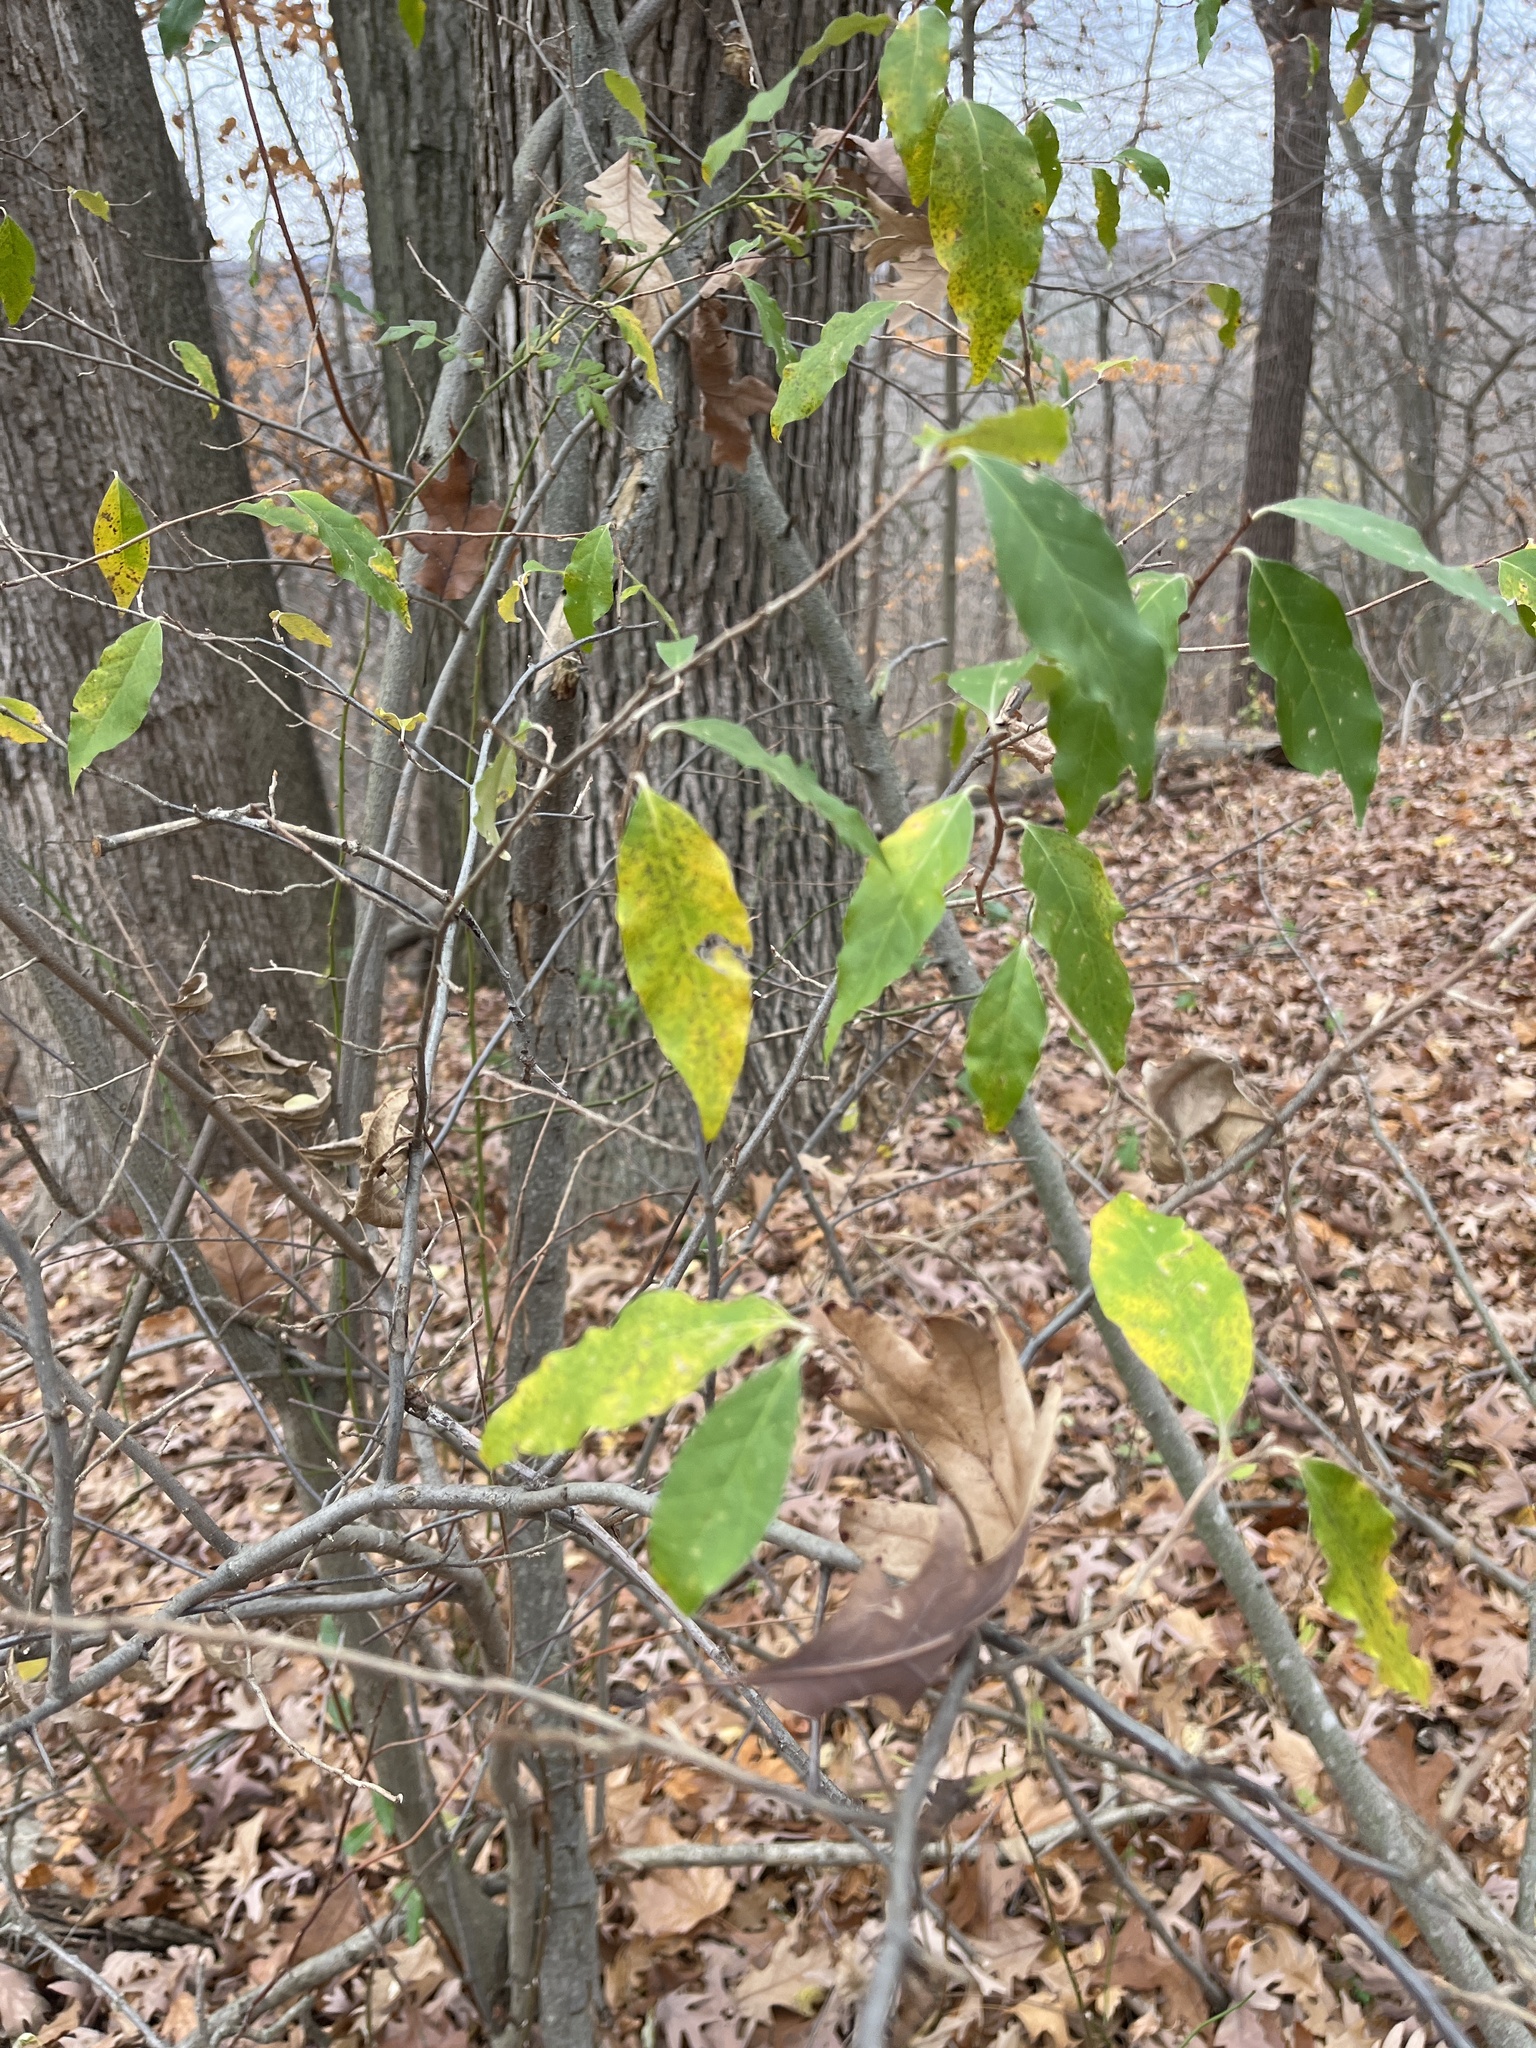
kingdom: Plantae
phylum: Tracheophyta
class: Magnoliopsida
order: Rosales
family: Elaeagnaceae
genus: Elaeagnus
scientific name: Elaeagnus umbellata
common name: Autumn olive
